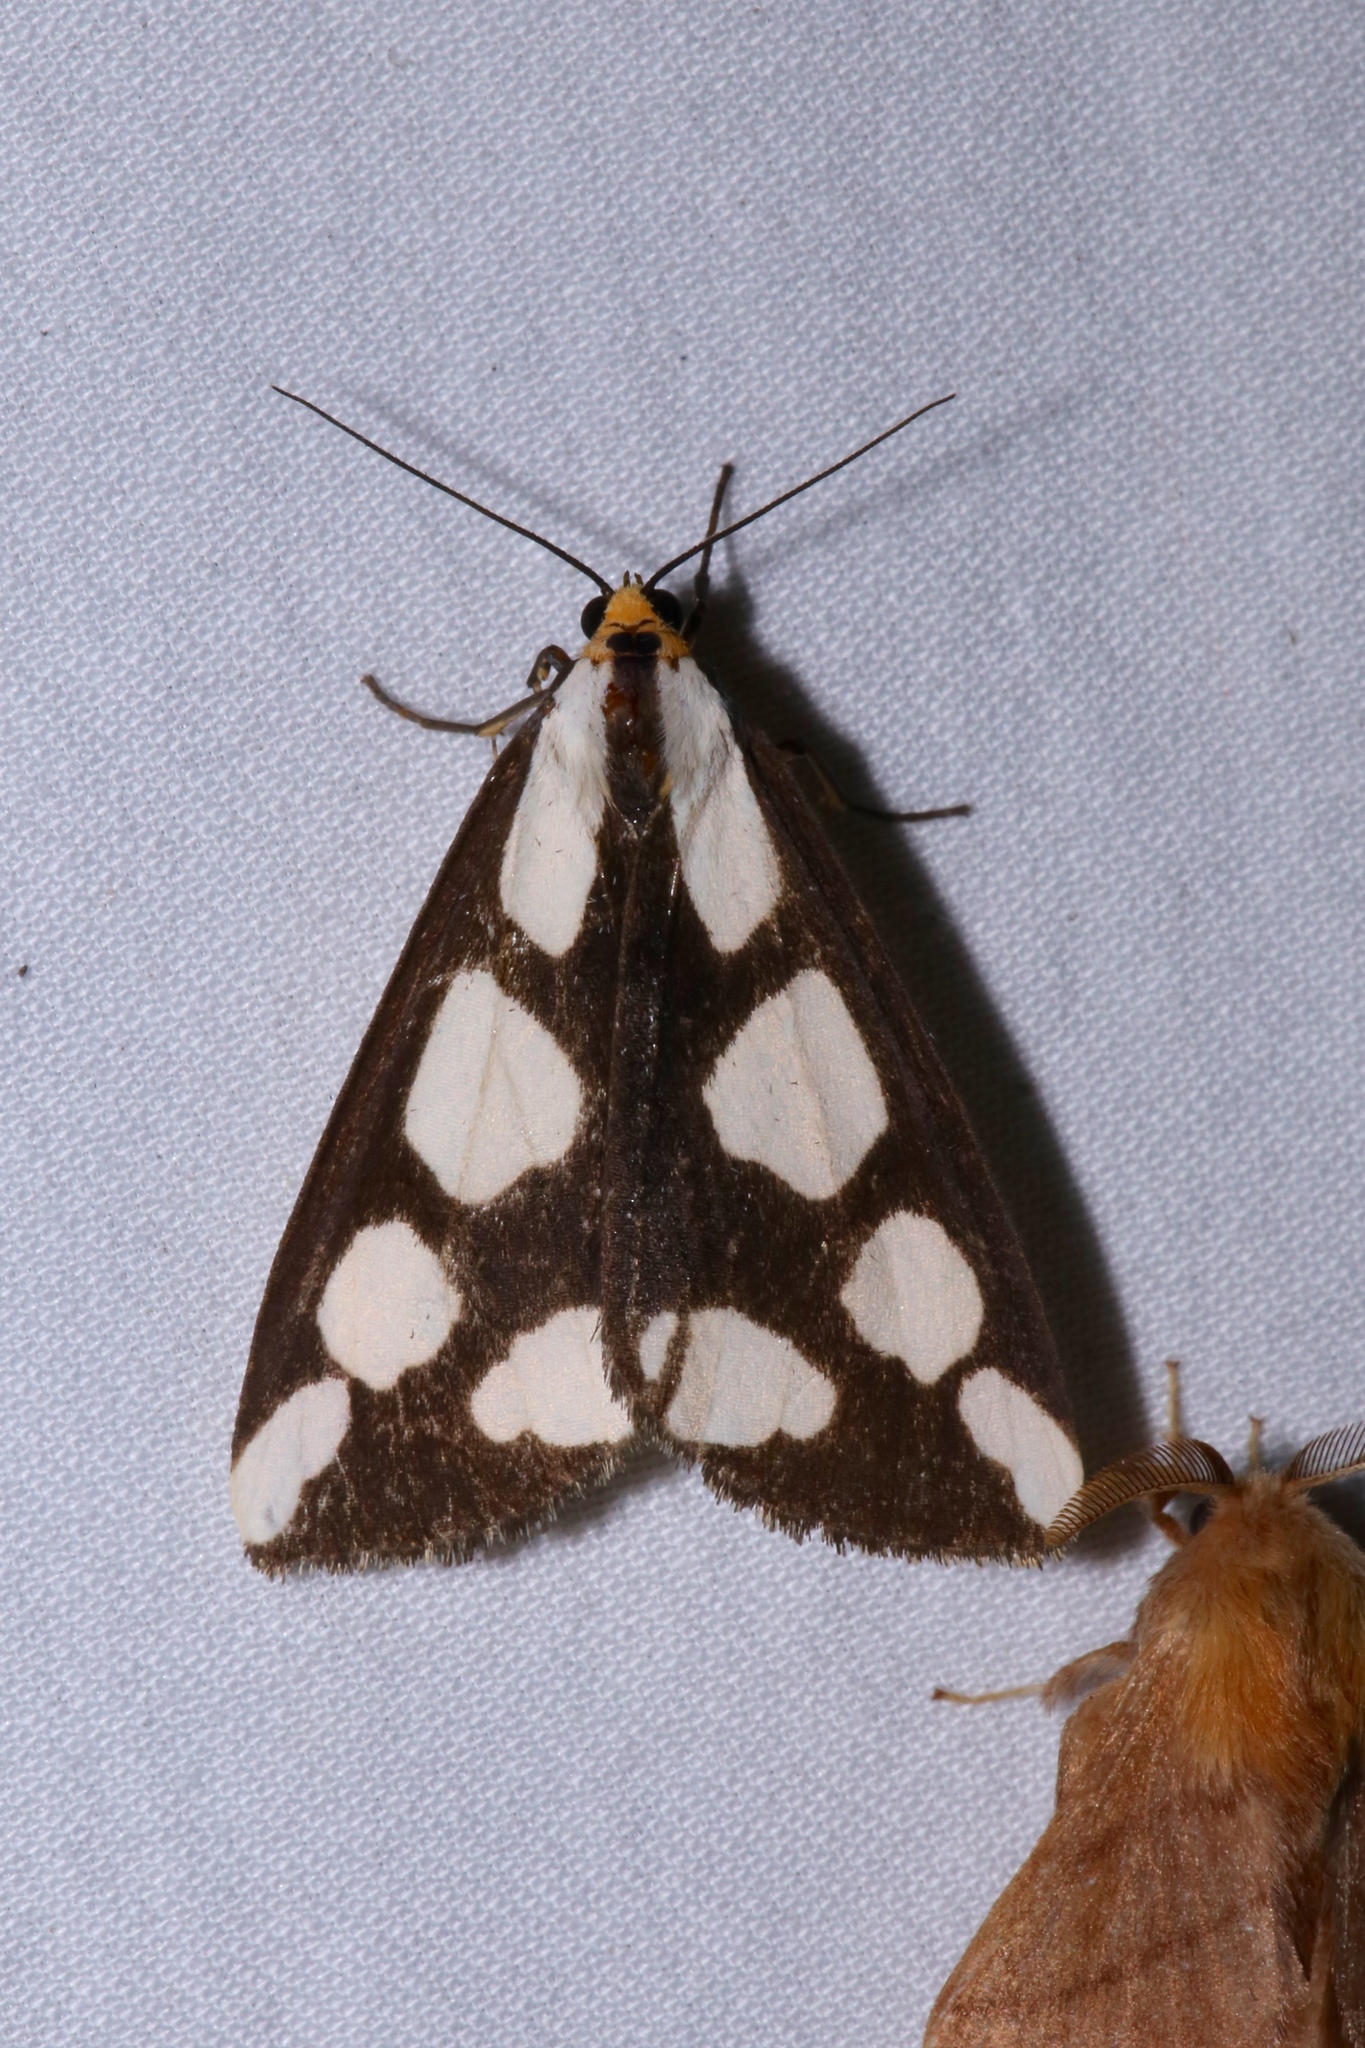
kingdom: Animalia
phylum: Arthropoda
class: Insecta
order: Lepidoptera
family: Erebidae
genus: Haploa
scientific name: Haploa lecontei
